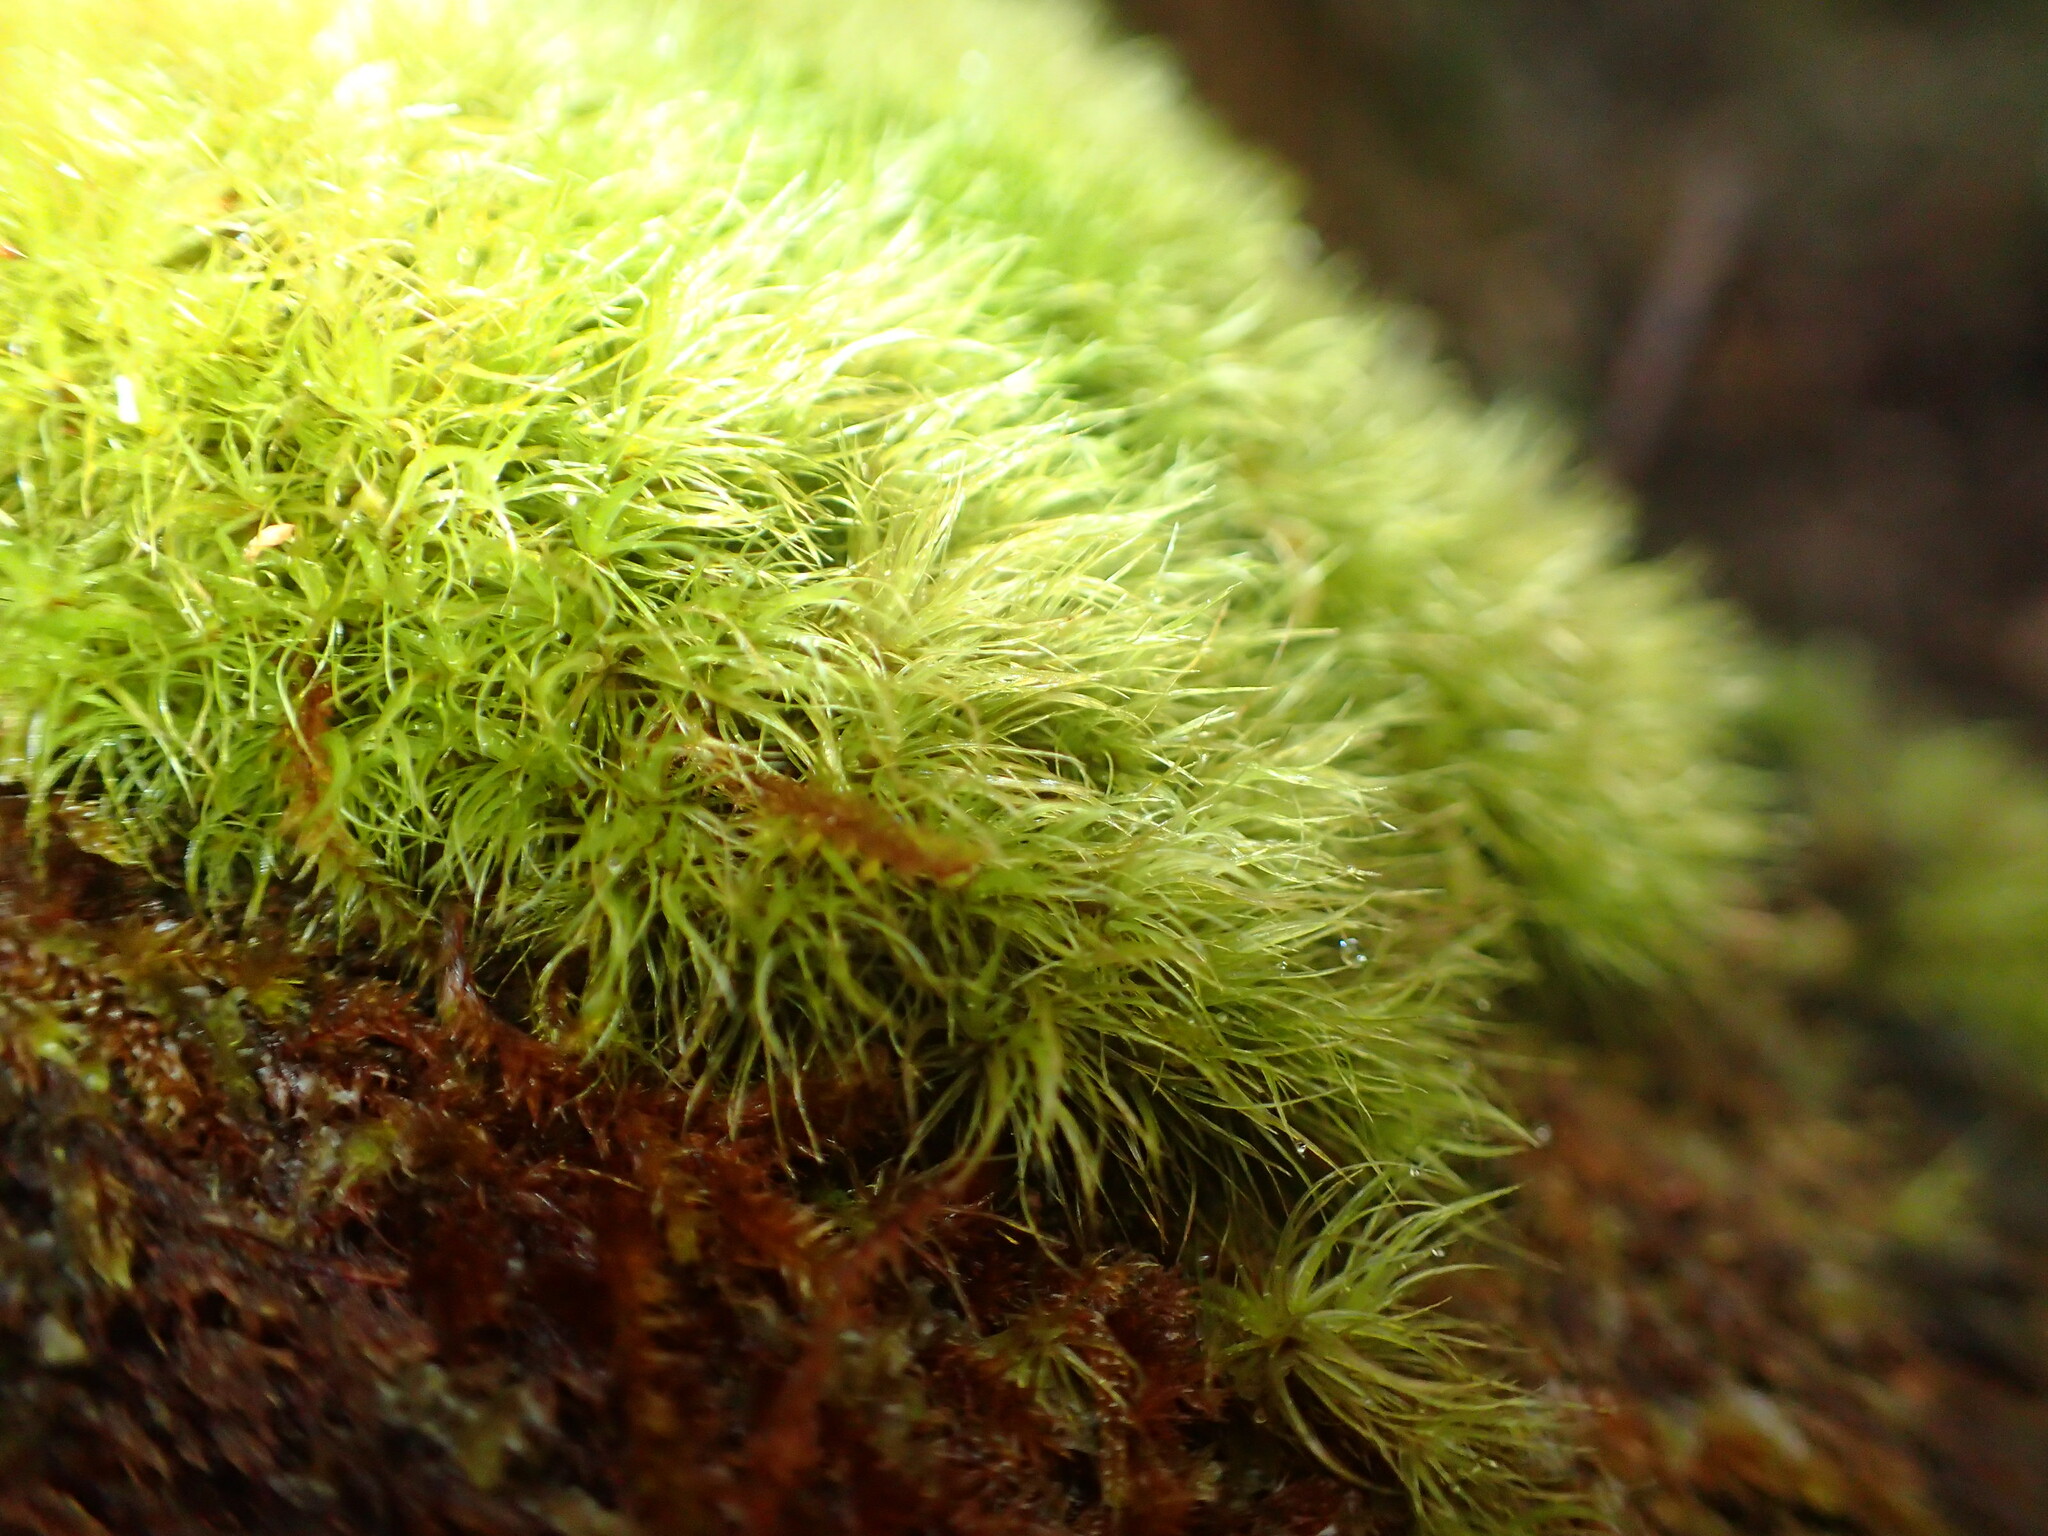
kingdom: Plantae
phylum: Bryophyta
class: Bryopsida
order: Dicranales
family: Dicranaceae
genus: Dicranoloma
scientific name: Dicranoloma diaphanoneuron
